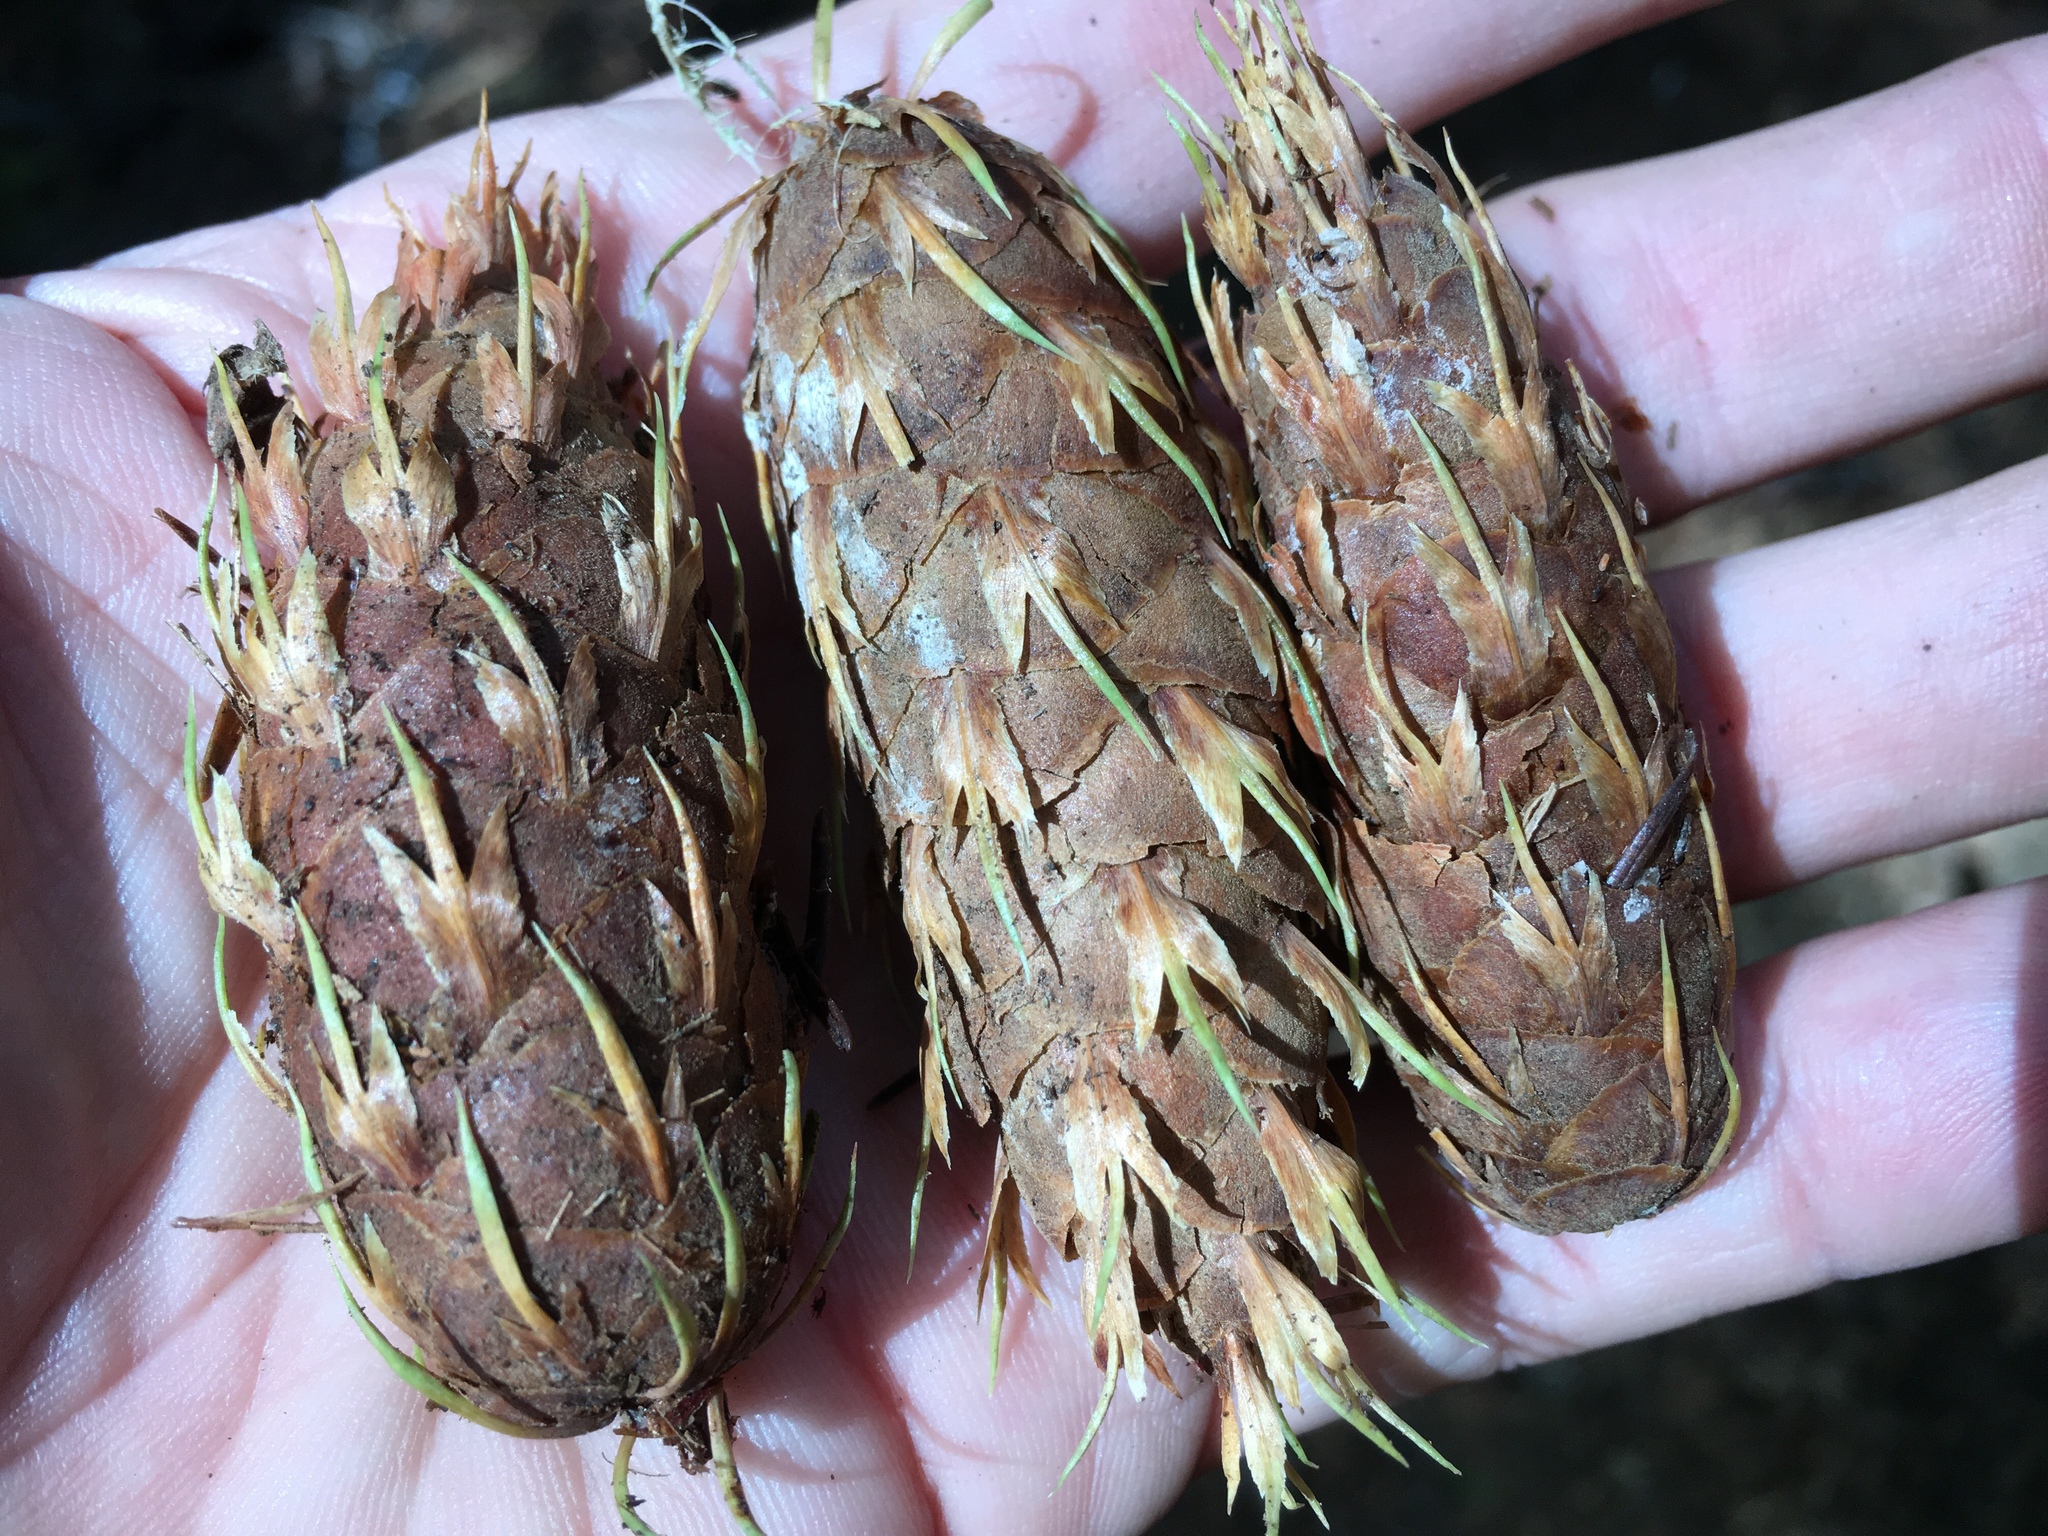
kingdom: Plantae
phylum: Tracheophyta
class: Pinopsida
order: Pinales
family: Pinaceae
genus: Pseudotsuga
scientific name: Pseudotsuga menziesii
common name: Douglas fir
